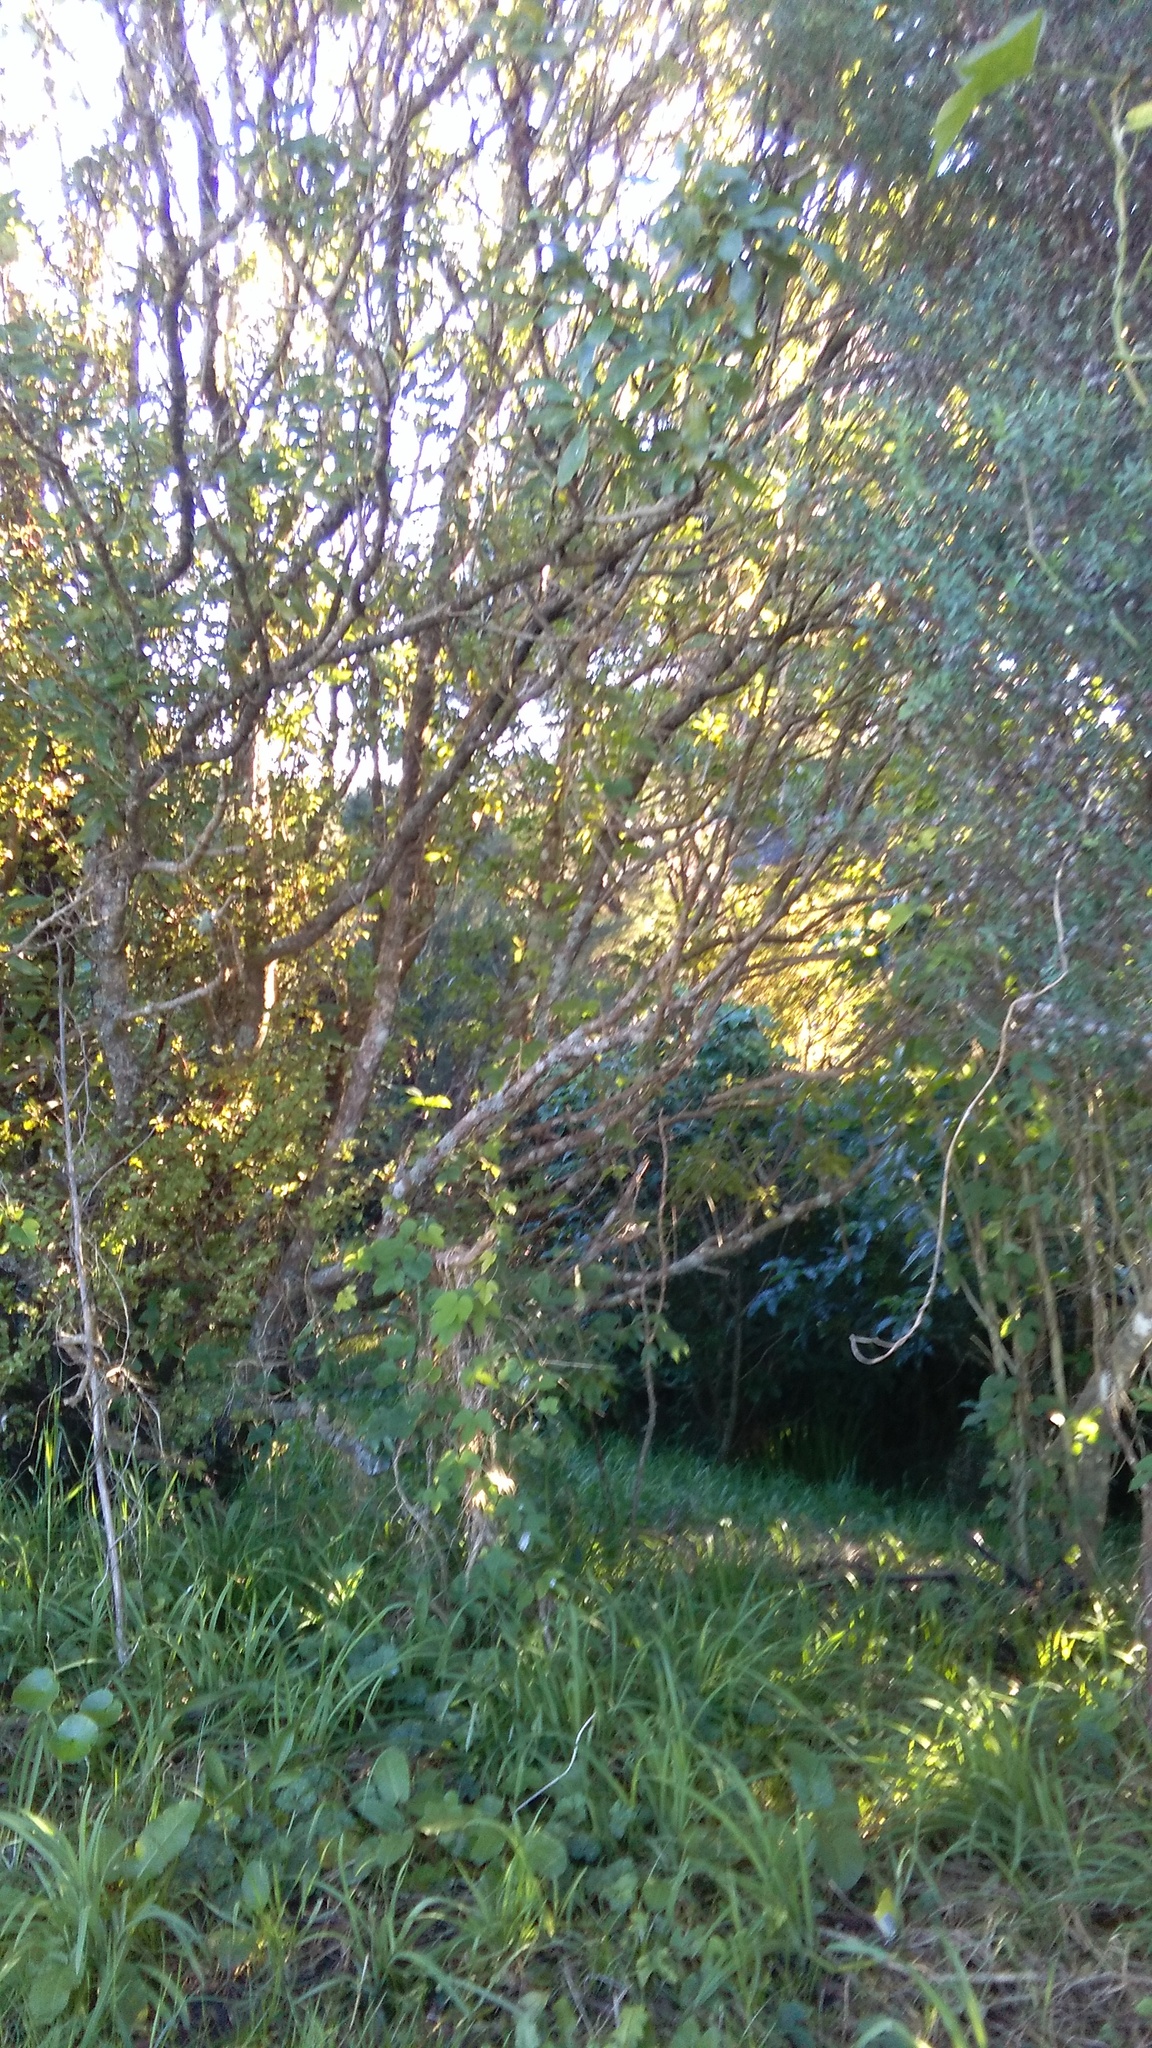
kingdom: Plantae
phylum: Tracheophyta
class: Magnoliopsida
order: Solanales
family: Convolvulaceae
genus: Ipomoea
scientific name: Ipomoea indica
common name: Blue dawnflower
